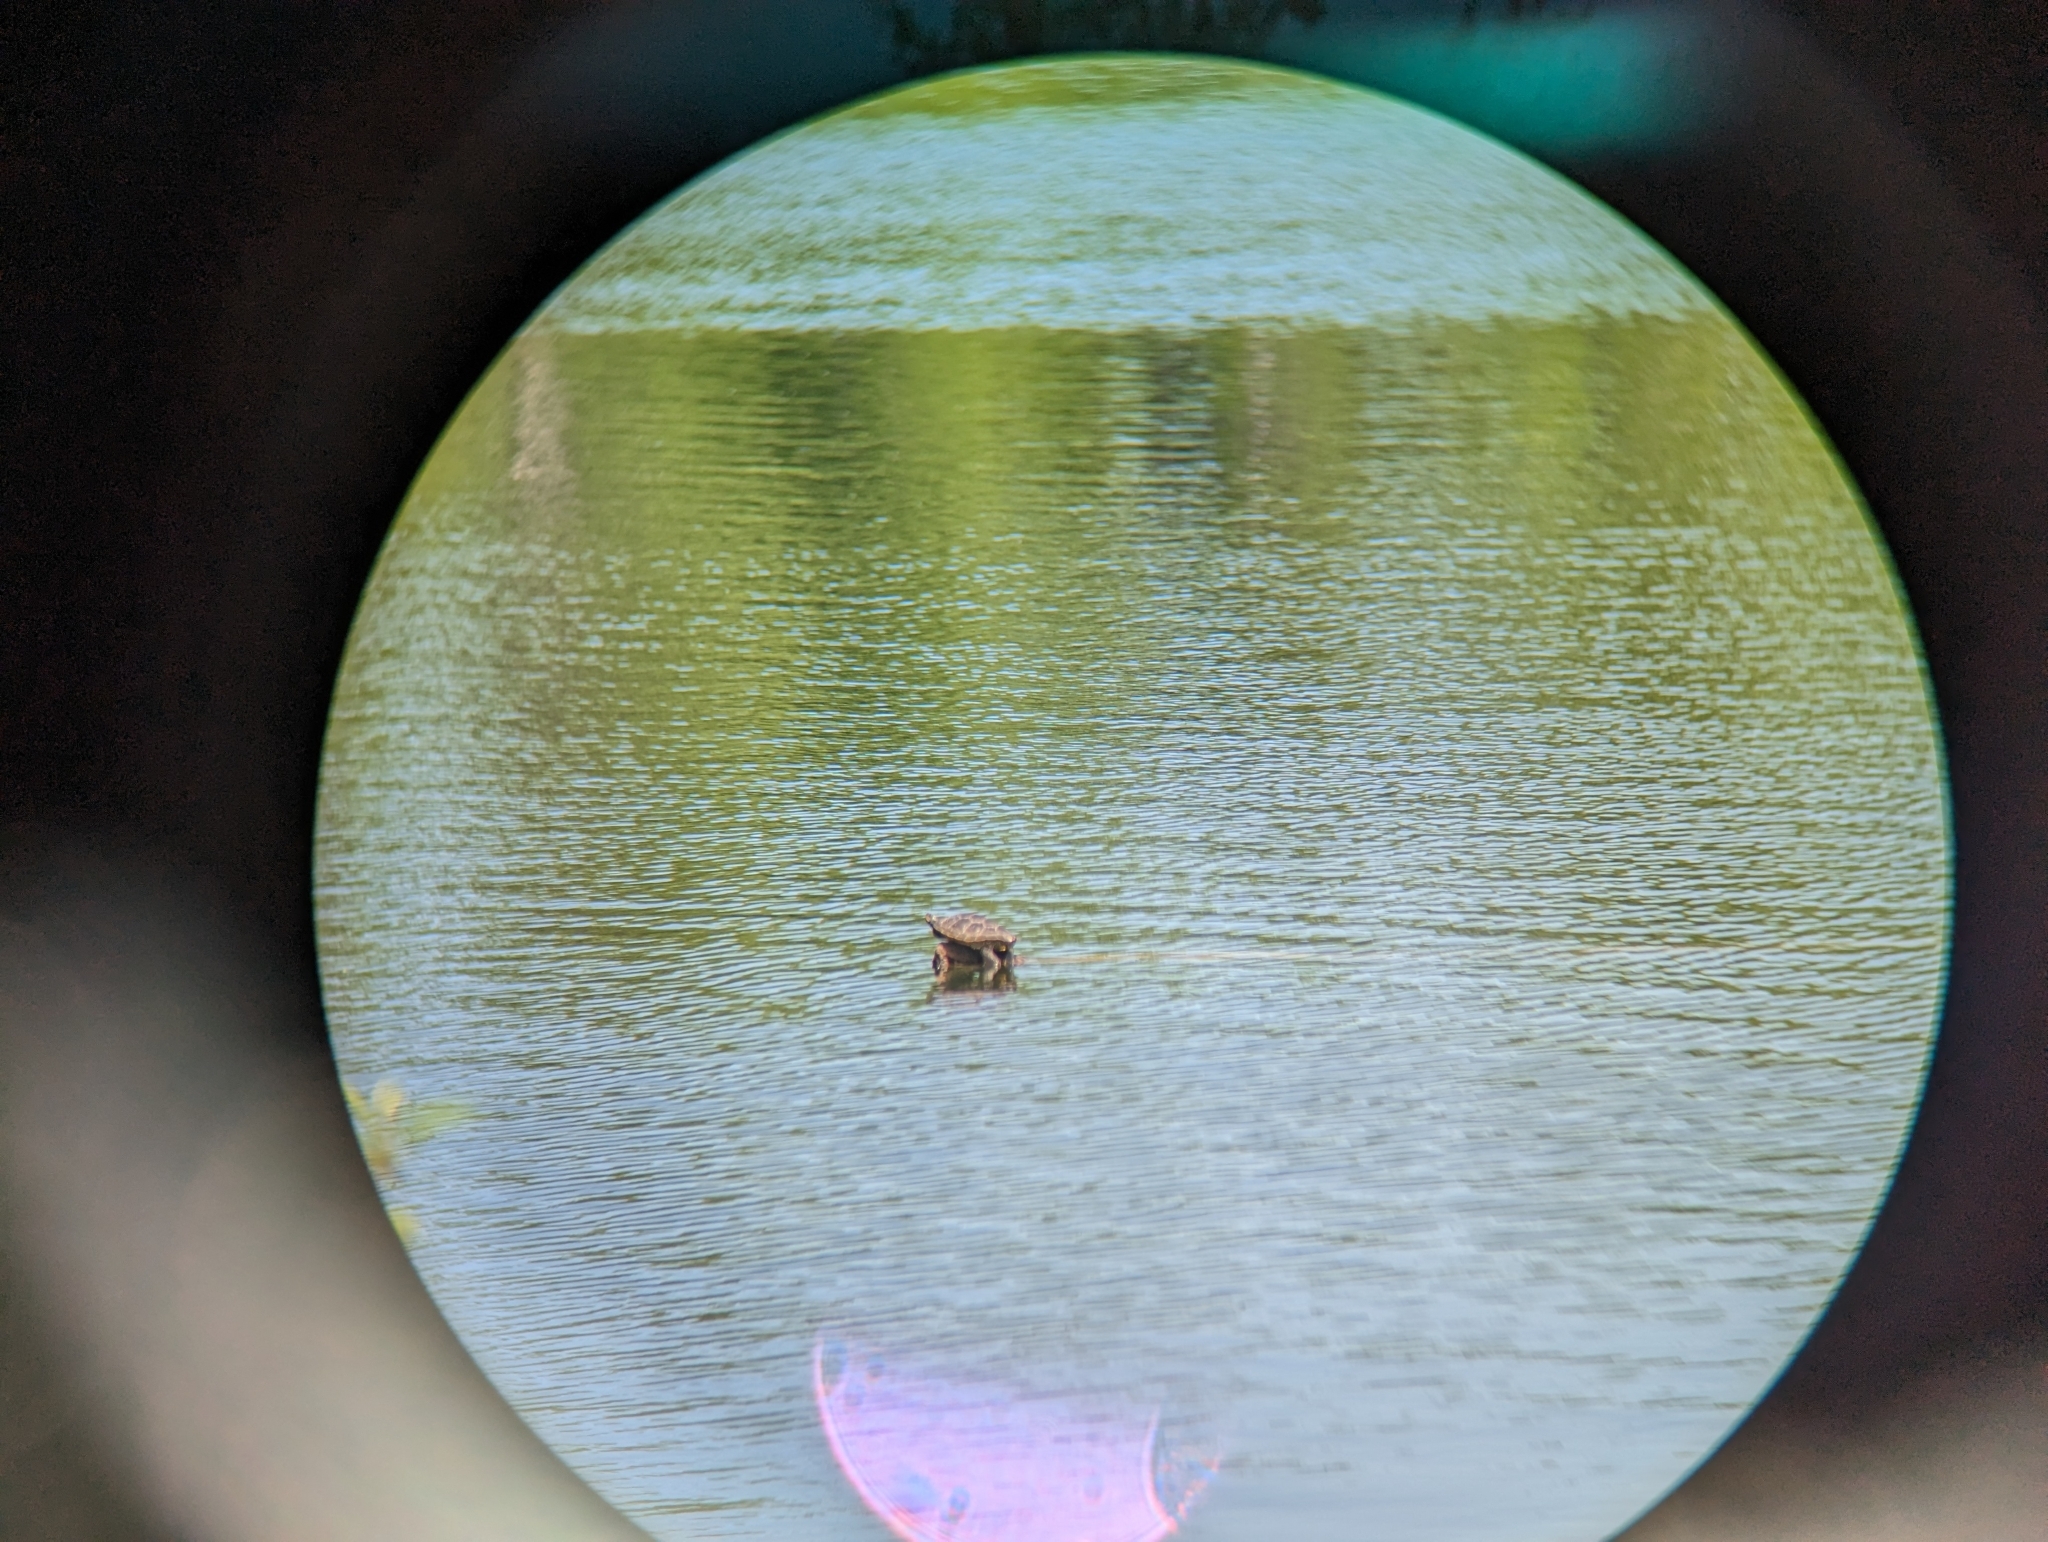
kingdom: Animalia
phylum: Chordata
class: Testudines
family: Emydidae
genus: Graptemys
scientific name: Graptemys geographica
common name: Common map turtle
